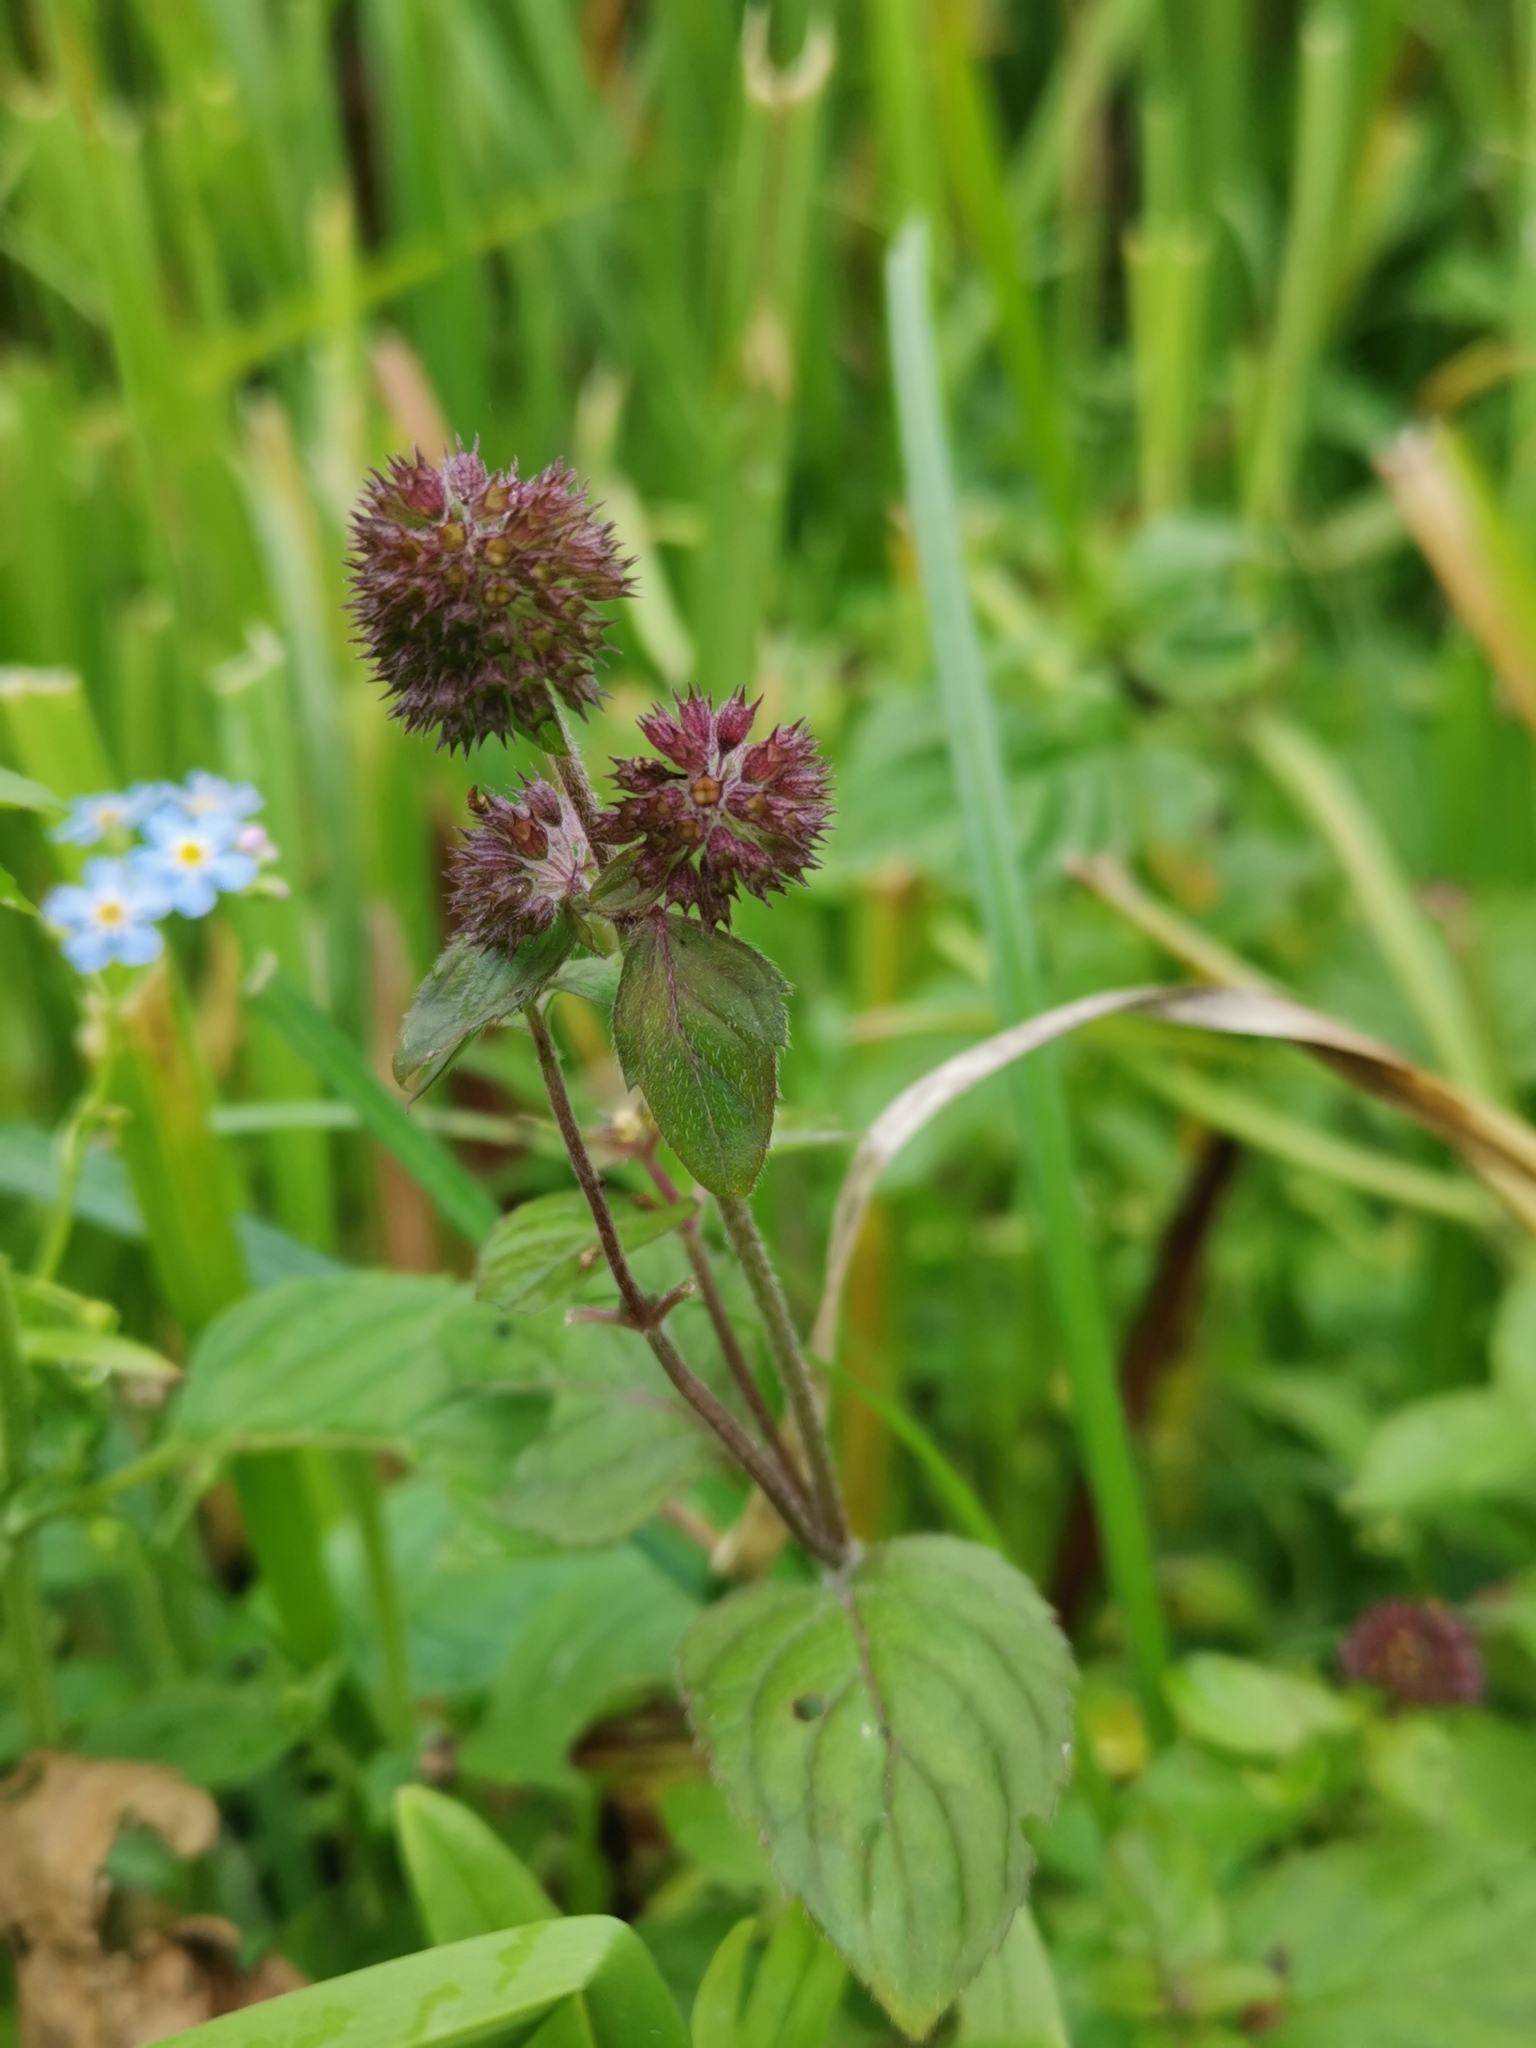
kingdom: Plantae
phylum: Tracheophyta
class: Magnoliopsida
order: Lamiales
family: Lamiaceae
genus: Mentha
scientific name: Mentha aquatica
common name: Water mint
